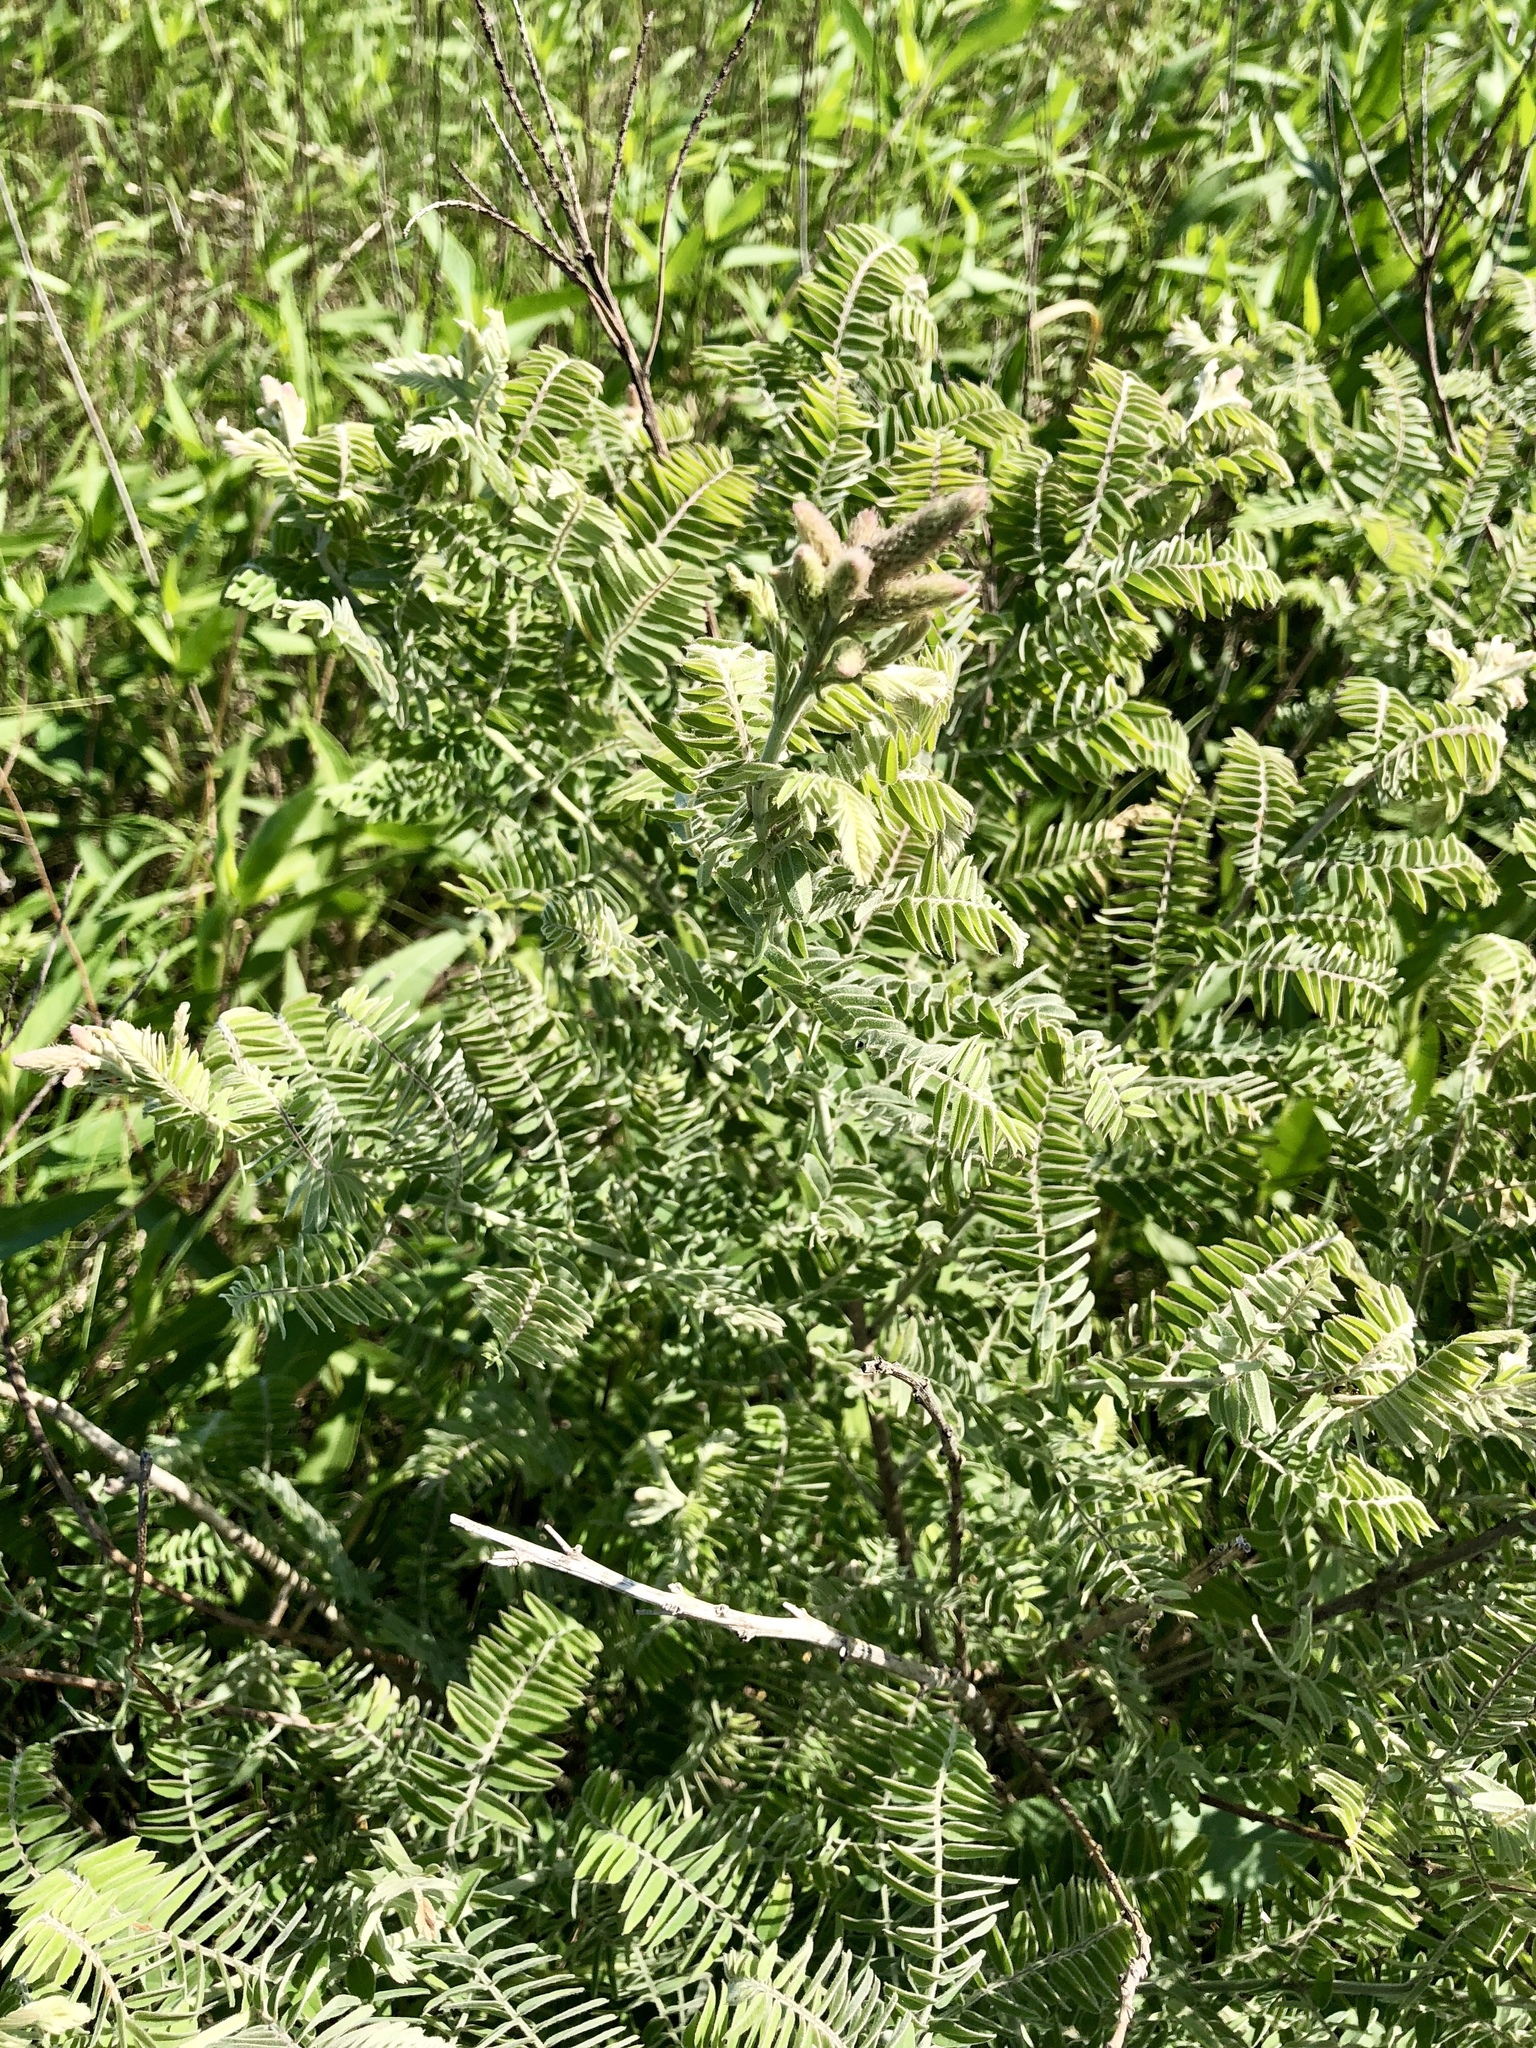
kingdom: Plantae
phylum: Tracheophyta
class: Magnoliopsida
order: Fabales
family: Fabaceae
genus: Amorpha
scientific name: Amorpha canescens
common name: Leadplant
